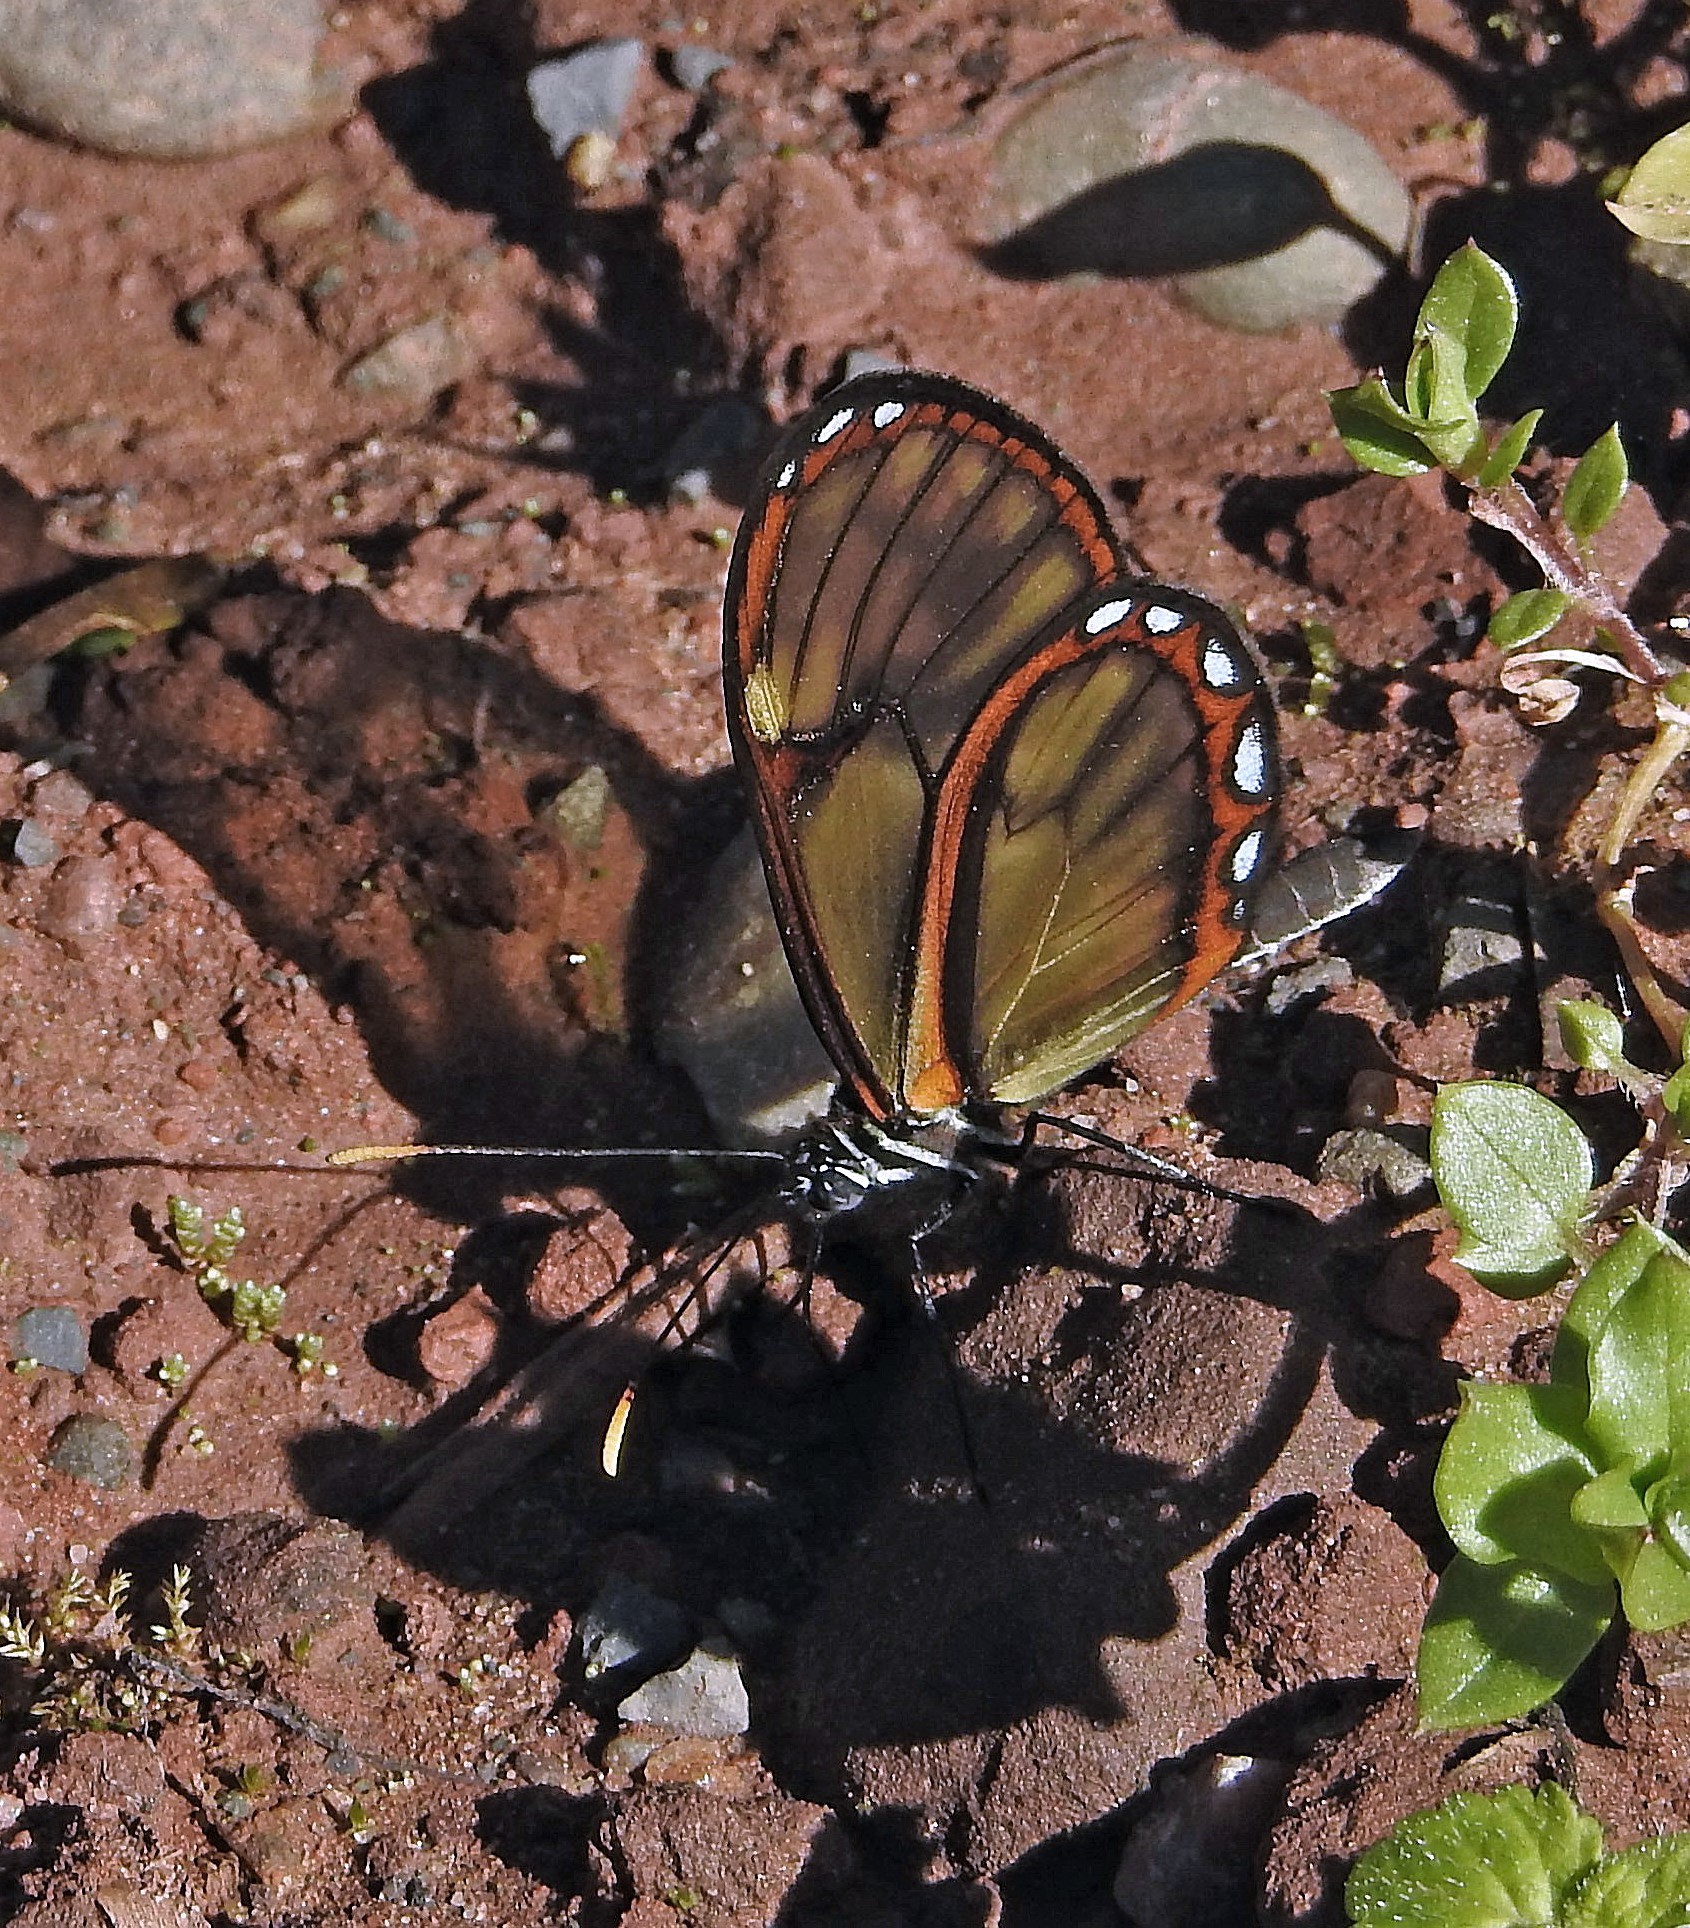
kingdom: Animalia
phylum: Arthropoda
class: Insecta
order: Lepidoptera
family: Nymphalidae
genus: Pteronymia
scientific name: Pteronymia ozia
